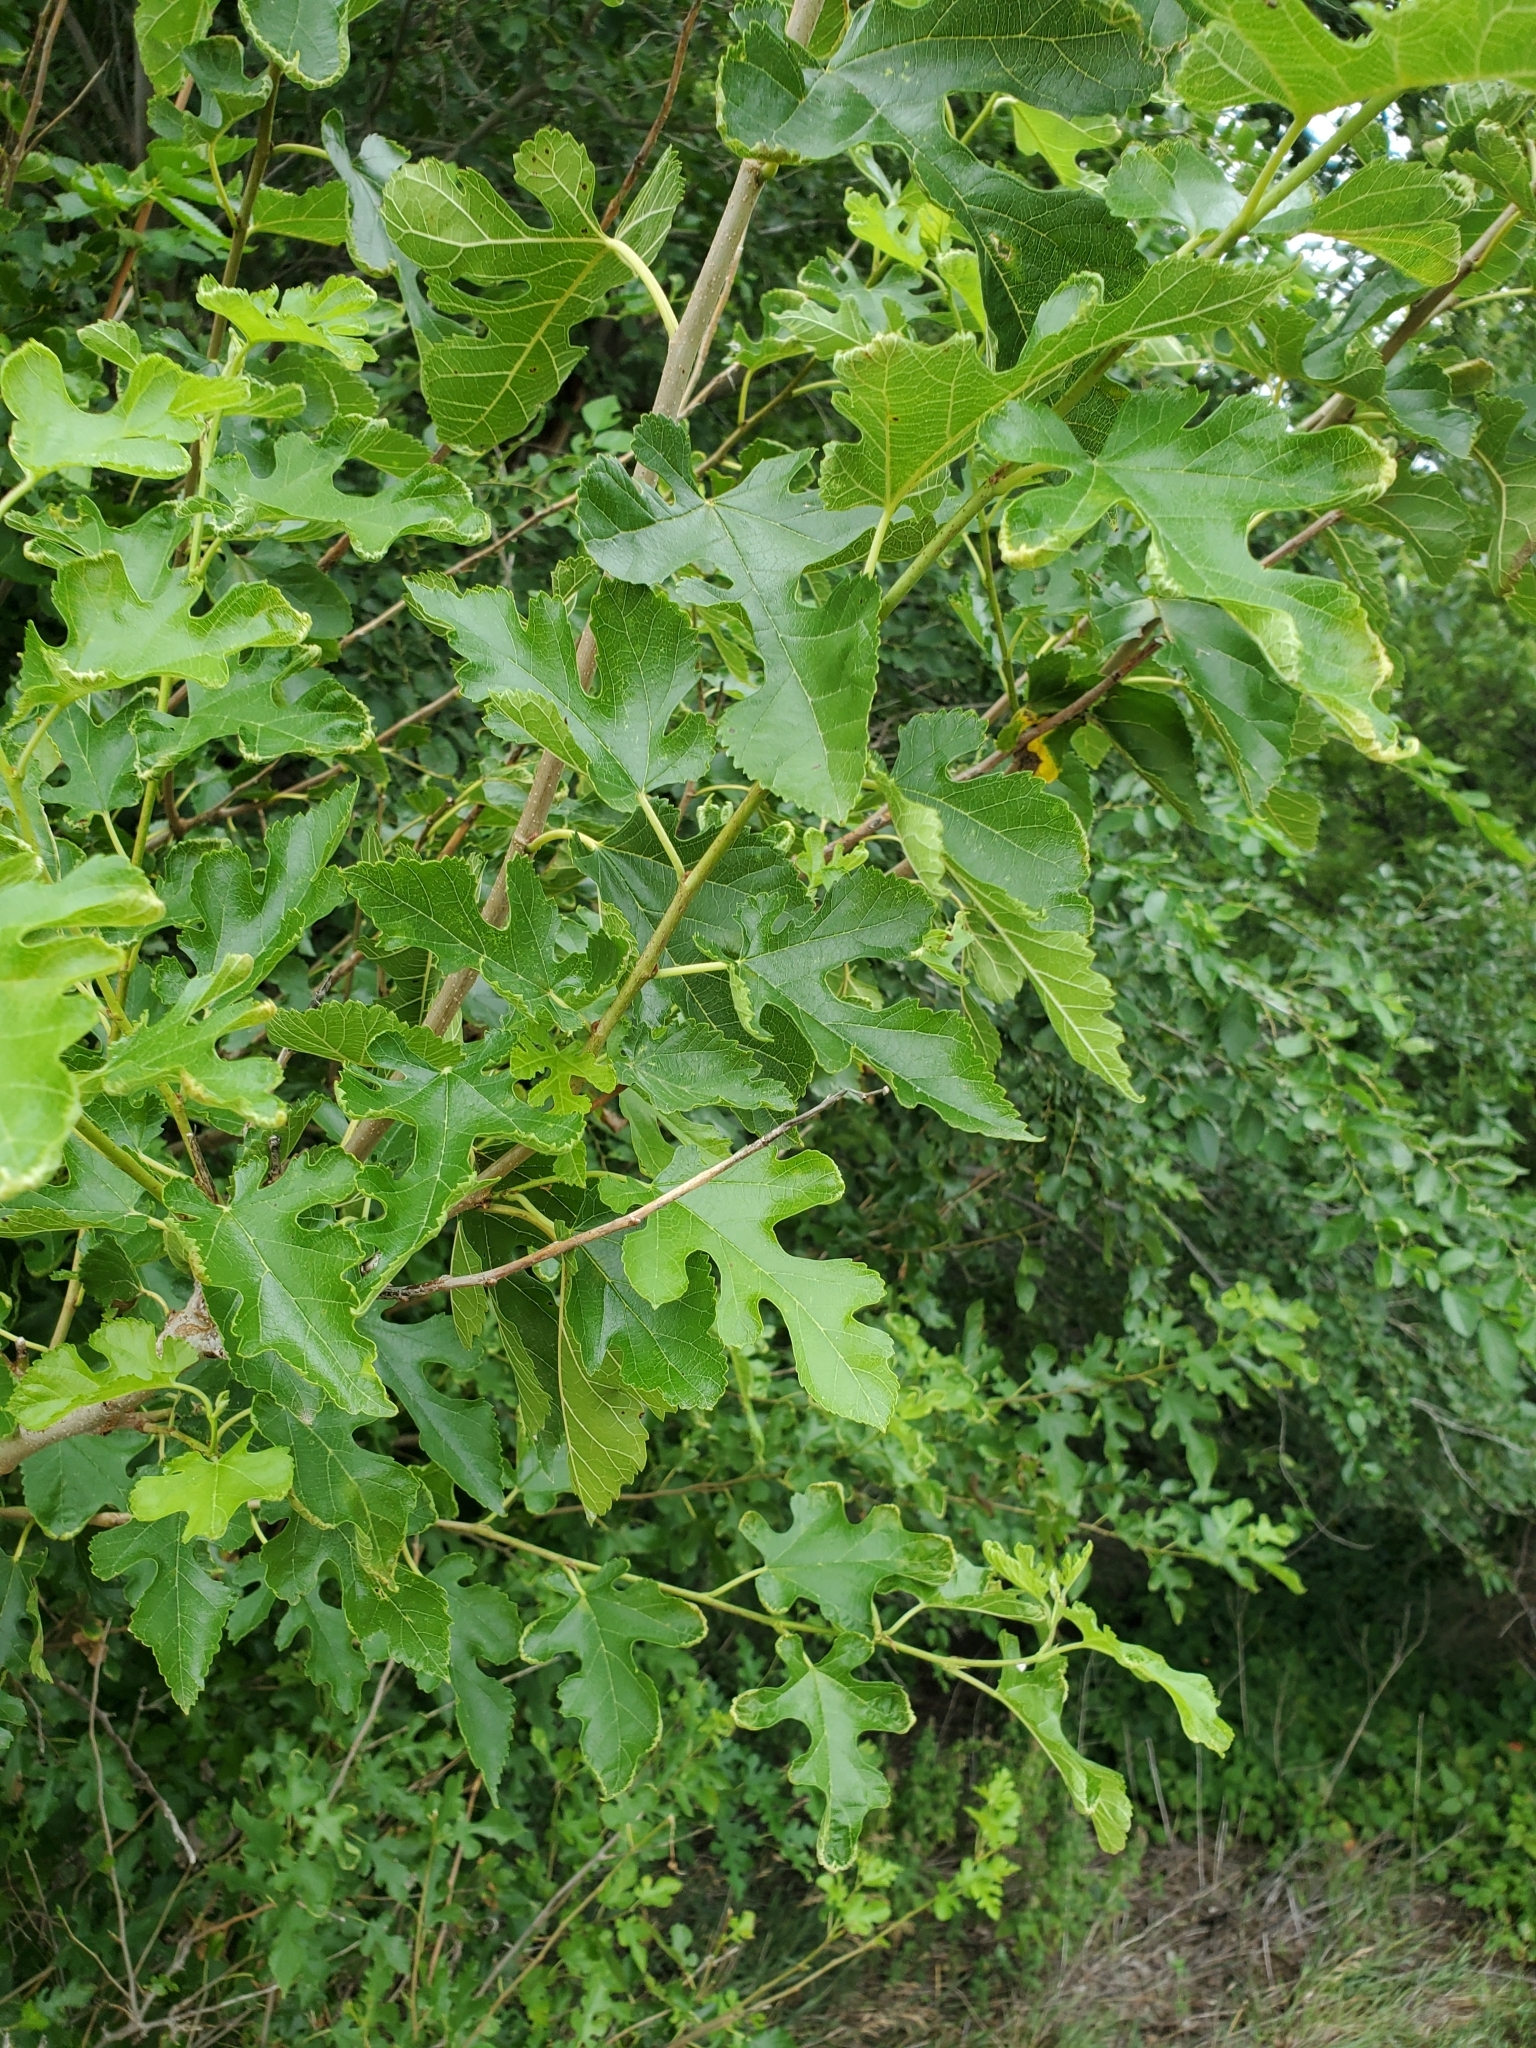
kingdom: Plantae
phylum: Tracheophyta
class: Magnoliopsida
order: Rosales
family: Moraceae
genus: Morus
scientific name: Morus alba
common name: White mulberry
